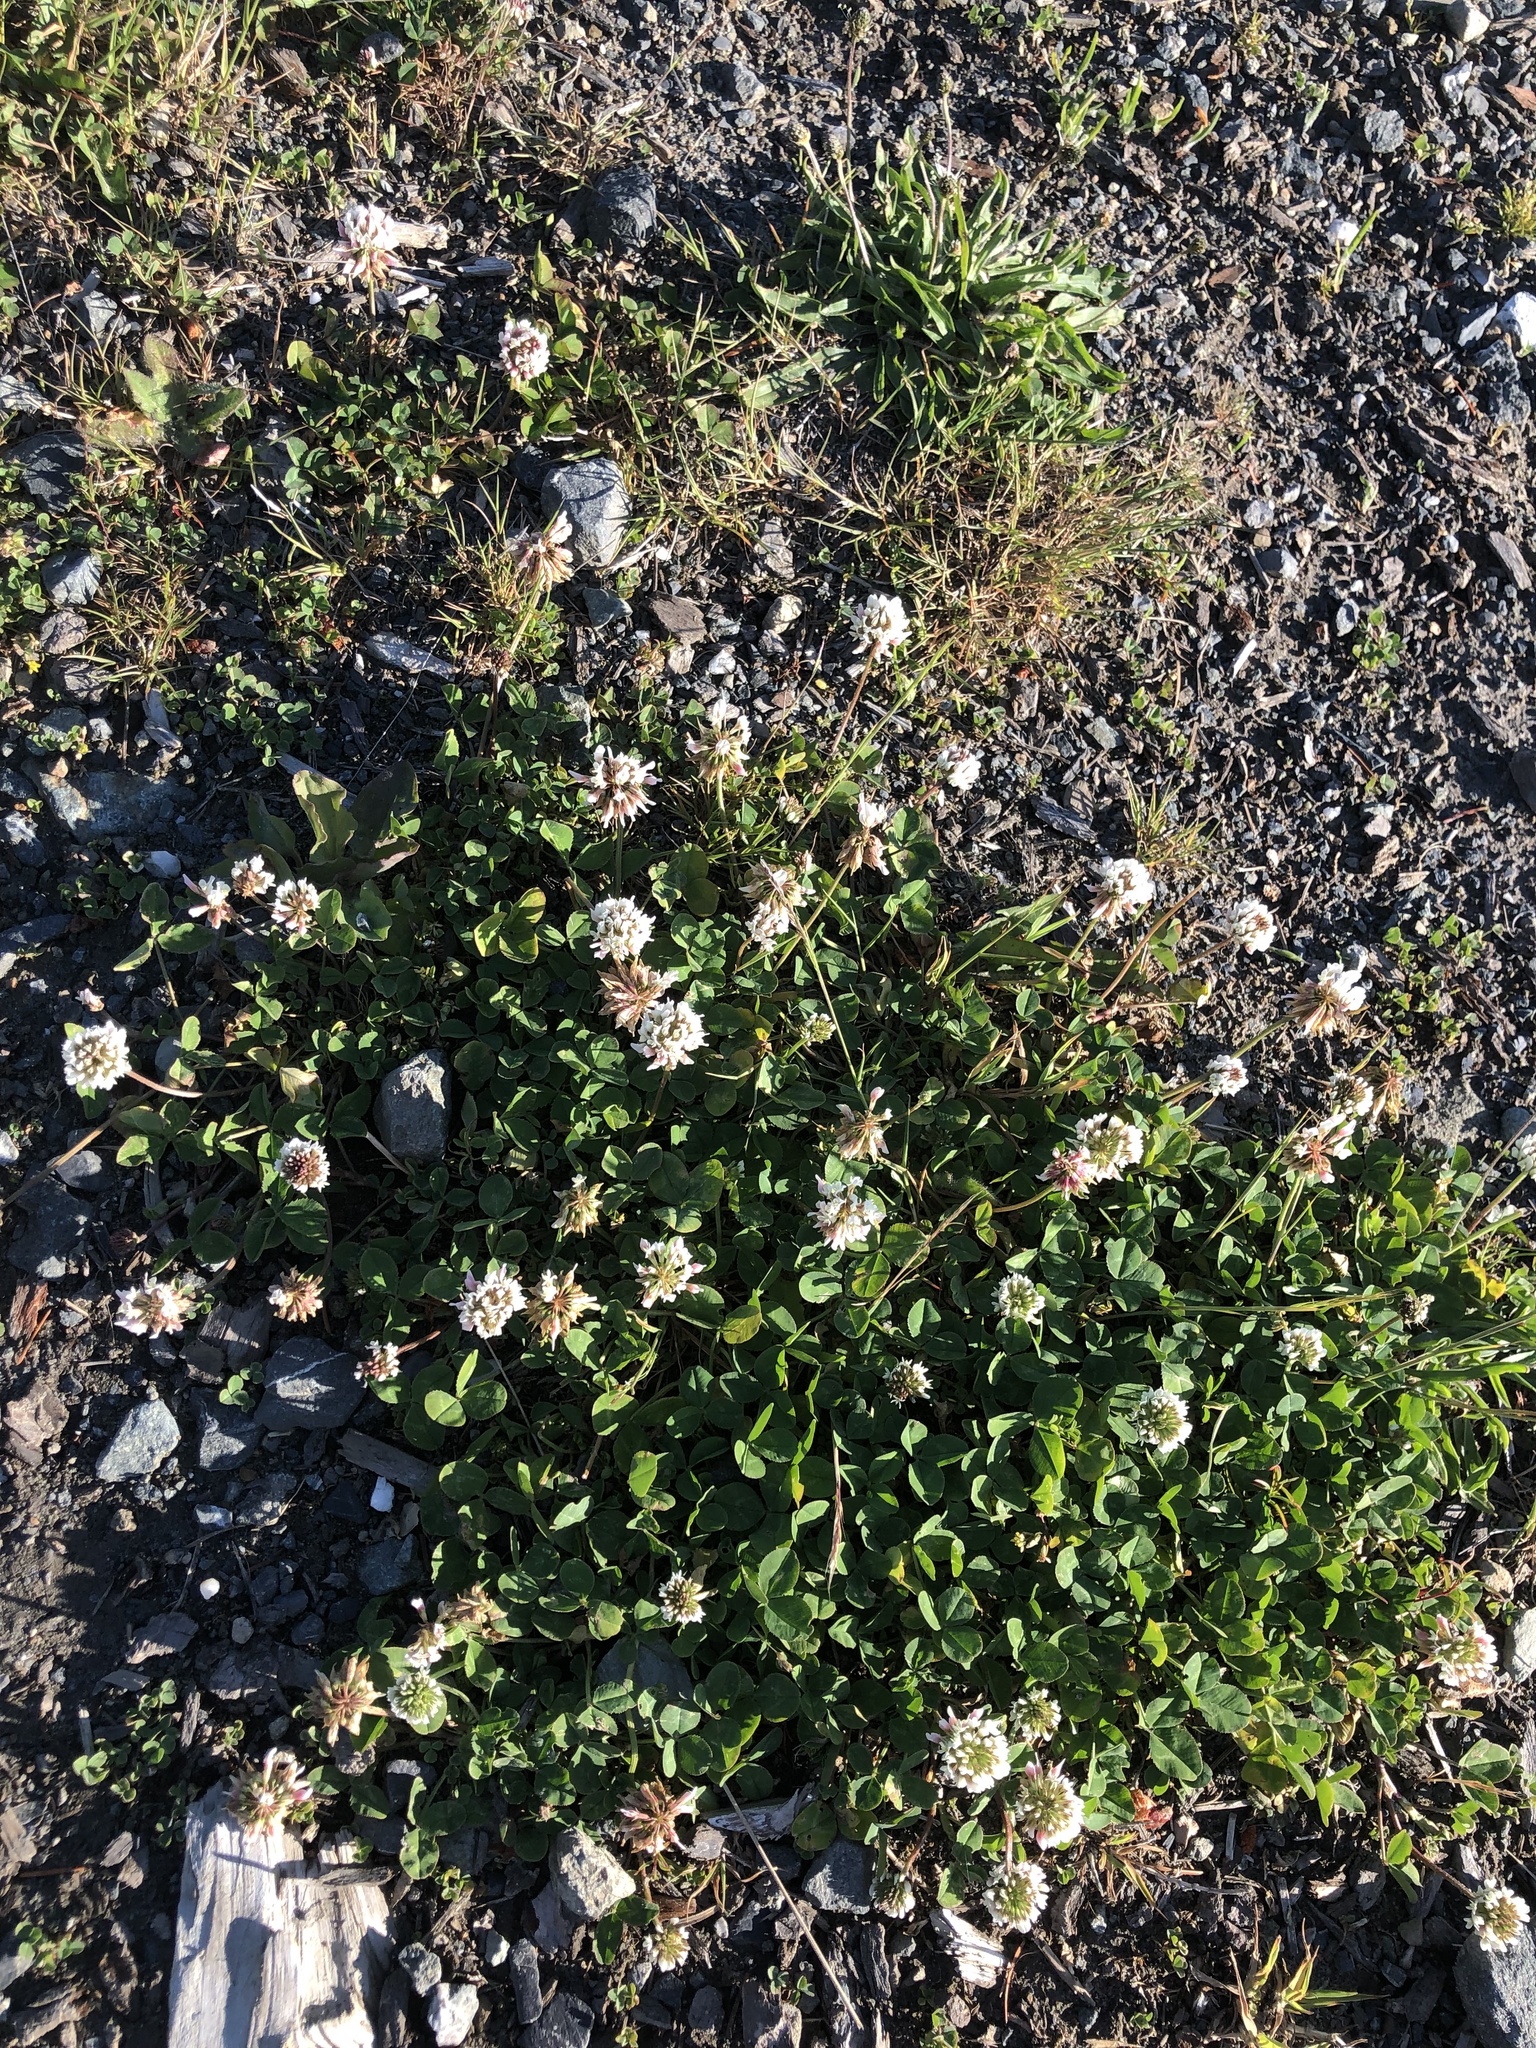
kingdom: Plantae
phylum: Tracheophyta
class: Magnoliopsida
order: Fabales
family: Fabaceae
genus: Trifolium
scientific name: Trifolium repens
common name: White clover
